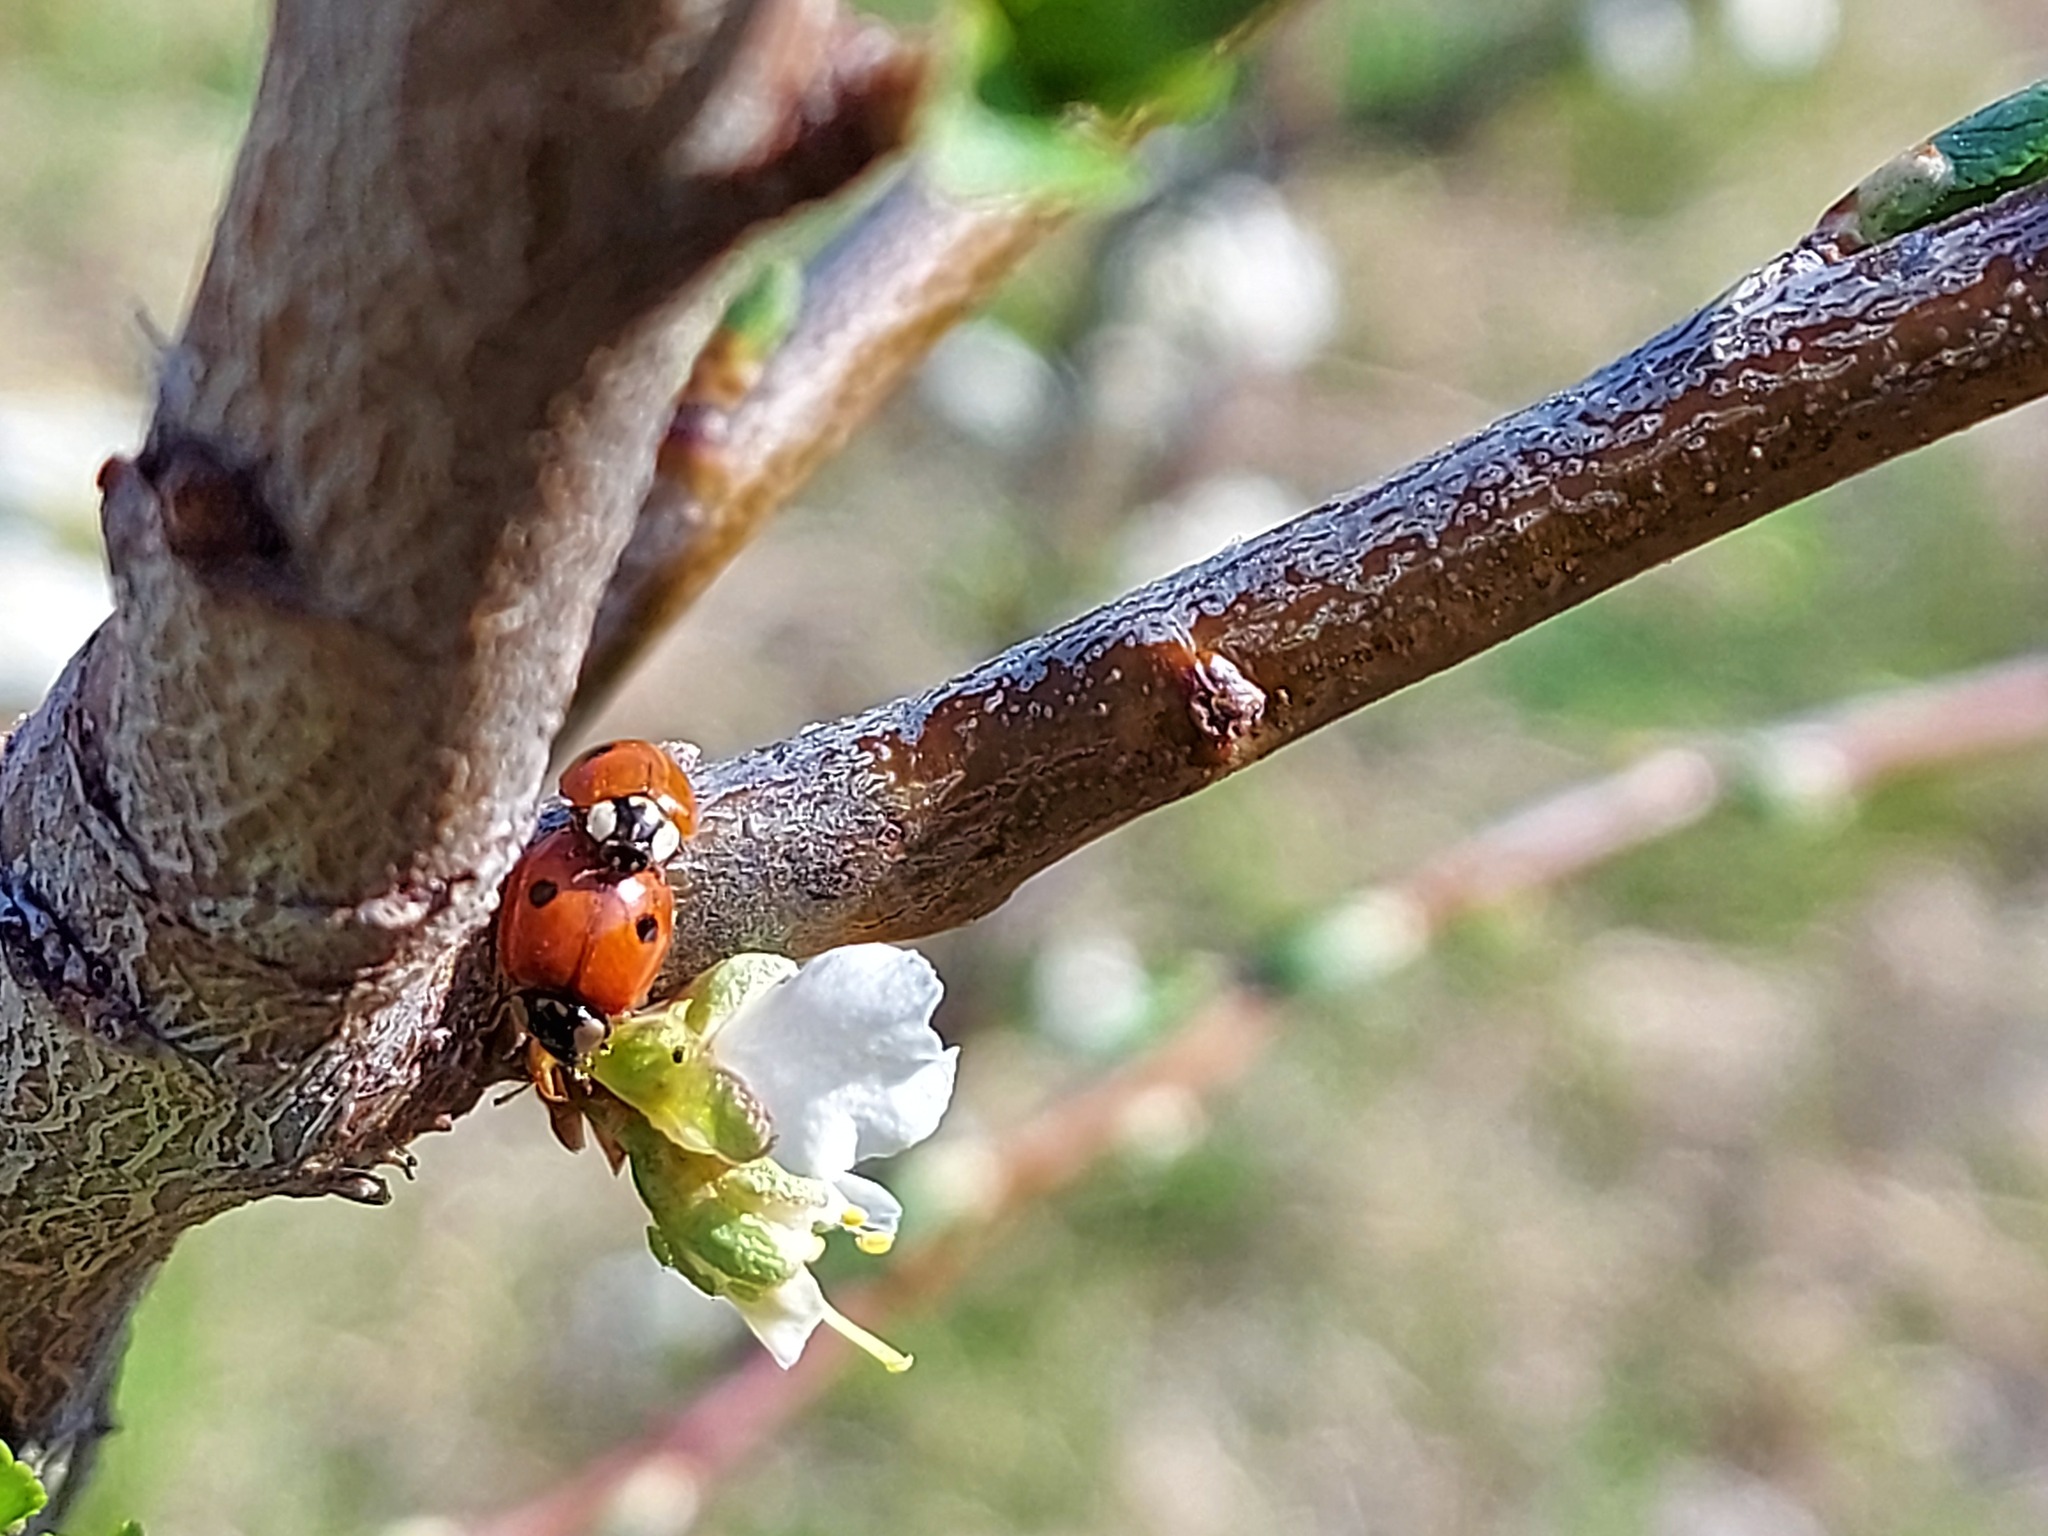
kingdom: Animalia
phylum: Arthropoda
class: Insecta
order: Coleoptera
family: Coccinellidae
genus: Adalia
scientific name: Adalia bipunctata
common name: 2-spot ladybird
